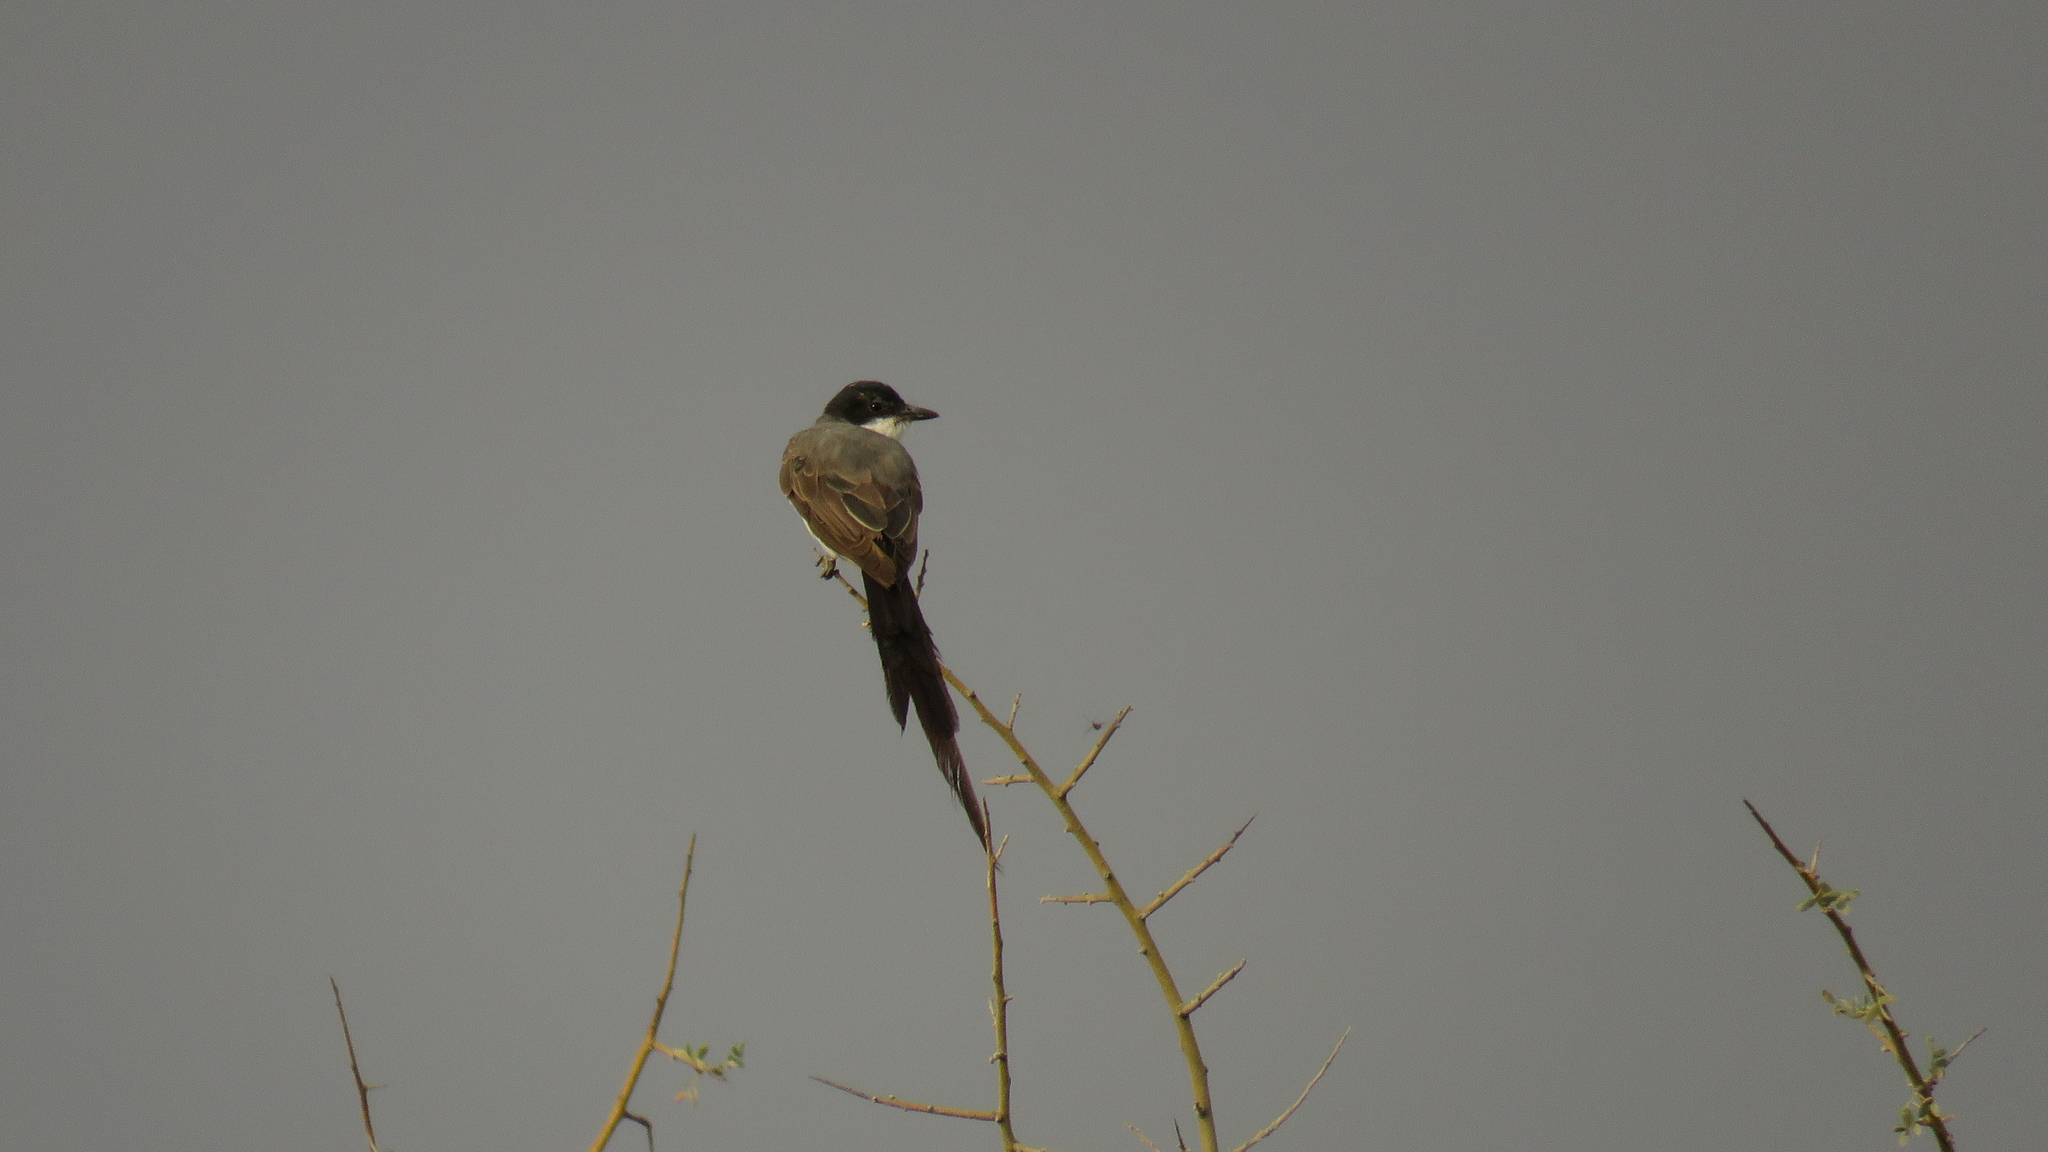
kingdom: Animalia
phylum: Chordata
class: Aves
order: Passeriformes
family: Tyrannidae
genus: Tyrannus
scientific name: Tyrannus savana
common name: Fork-tailed flycatcher
